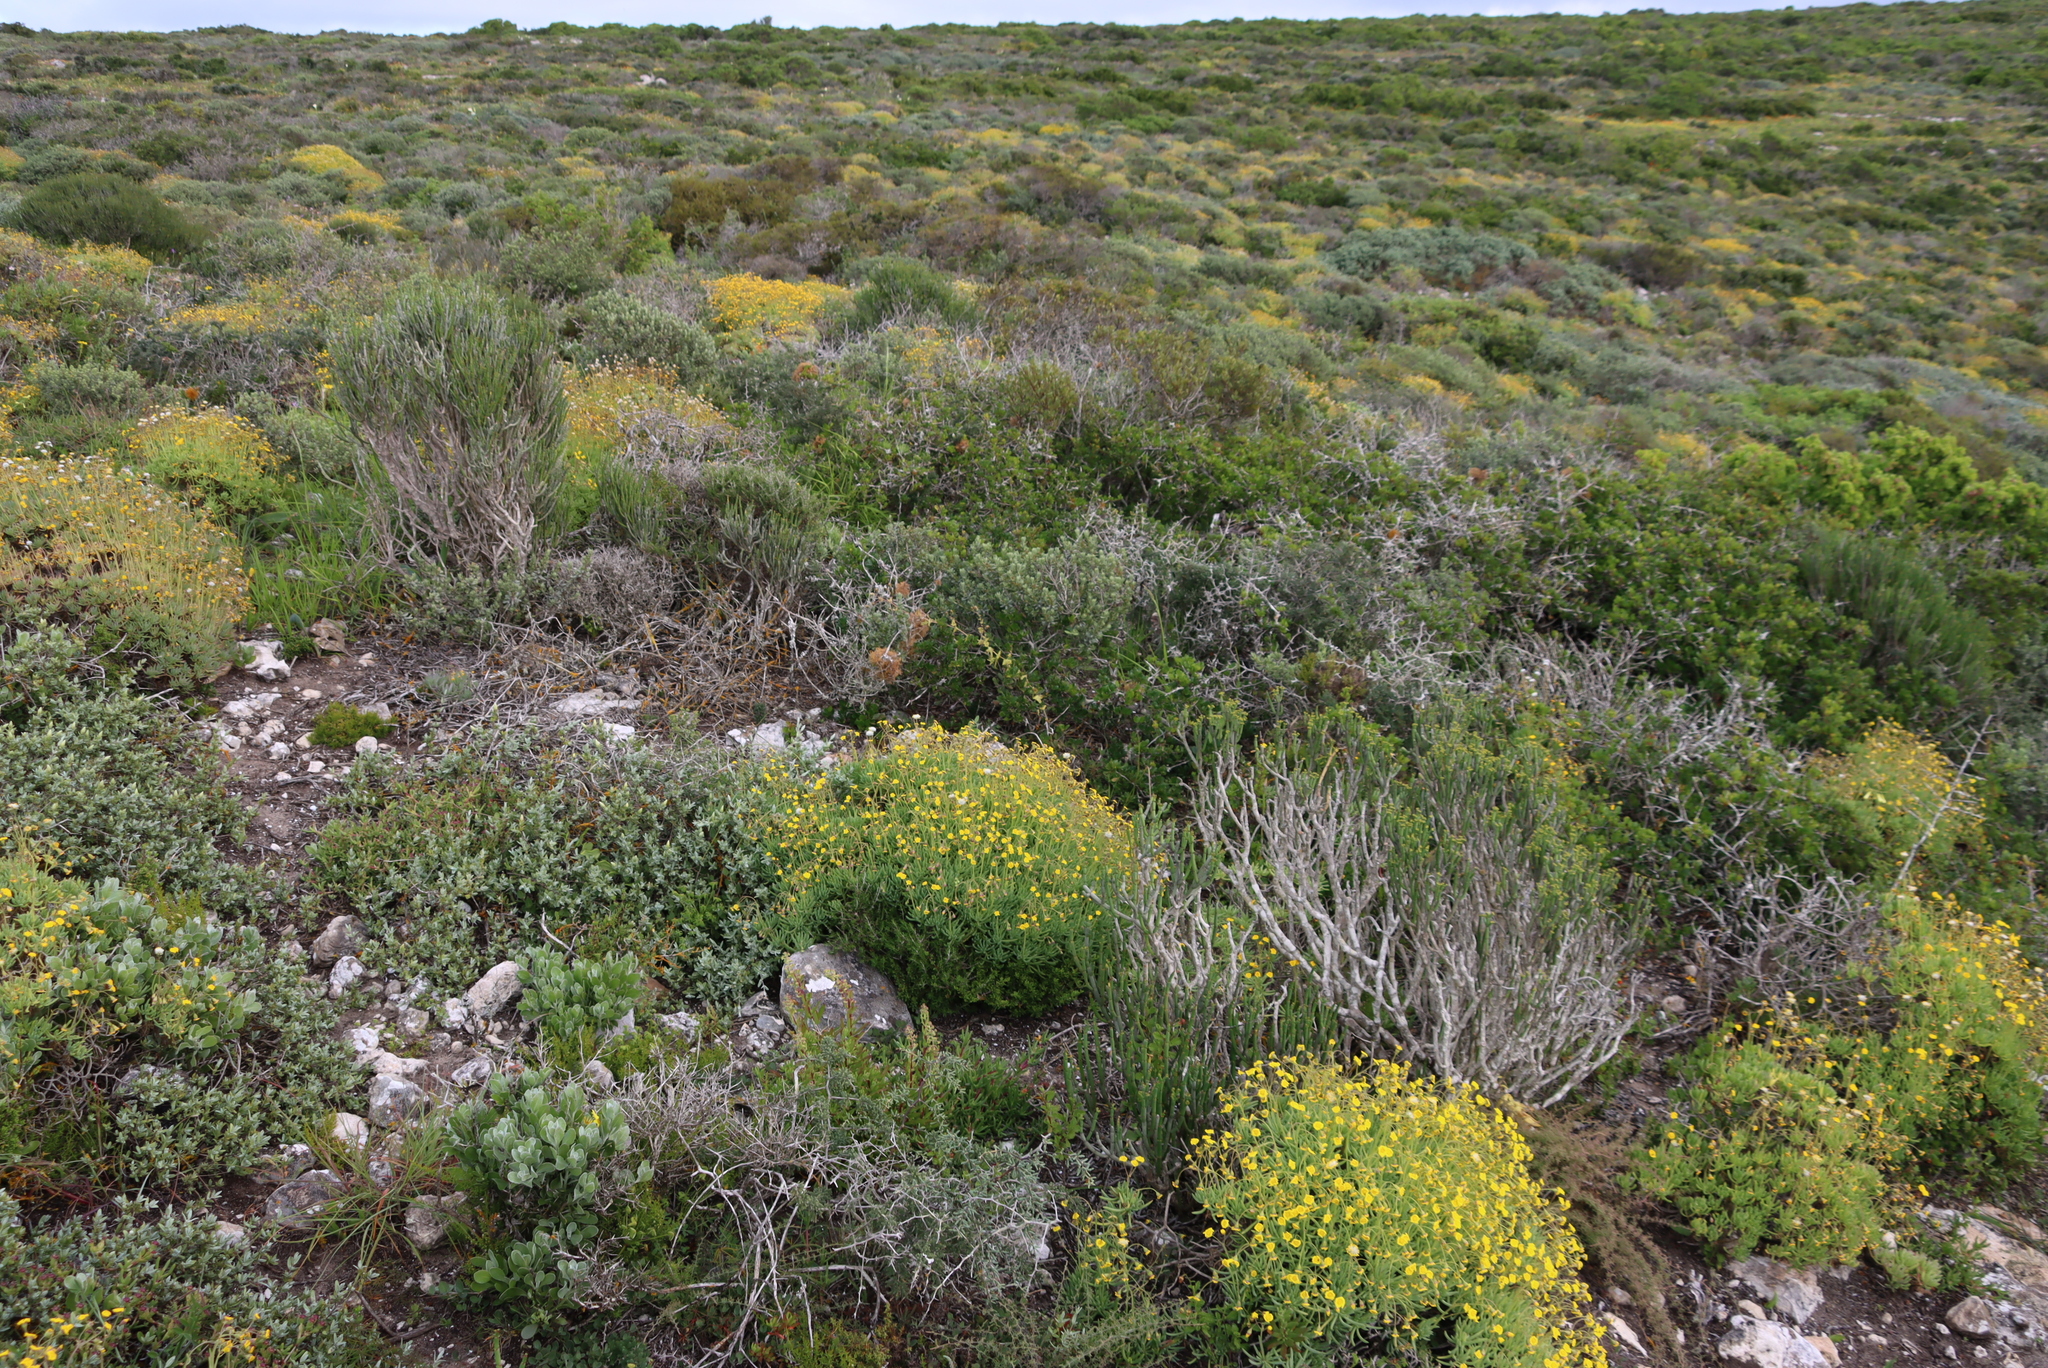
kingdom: Plantae
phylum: Tracheophyta
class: Magnoliopsida
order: Asterales
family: Asteraceae
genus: Pteronia
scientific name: Pteronia ovalifolia
